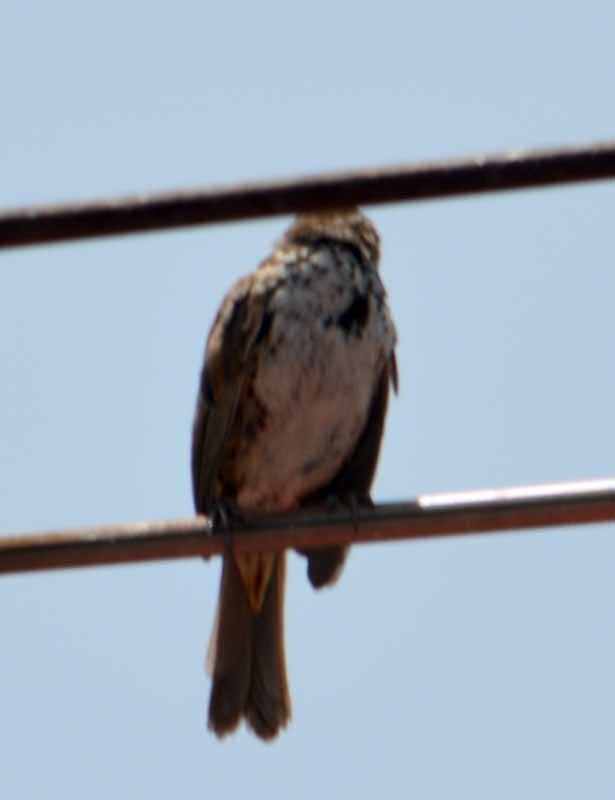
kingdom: Animalia
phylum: Chordata
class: Aves
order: Passeriformes
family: Passerellidae
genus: Melospiza
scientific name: Melospiza melodia
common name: Song sparrow
